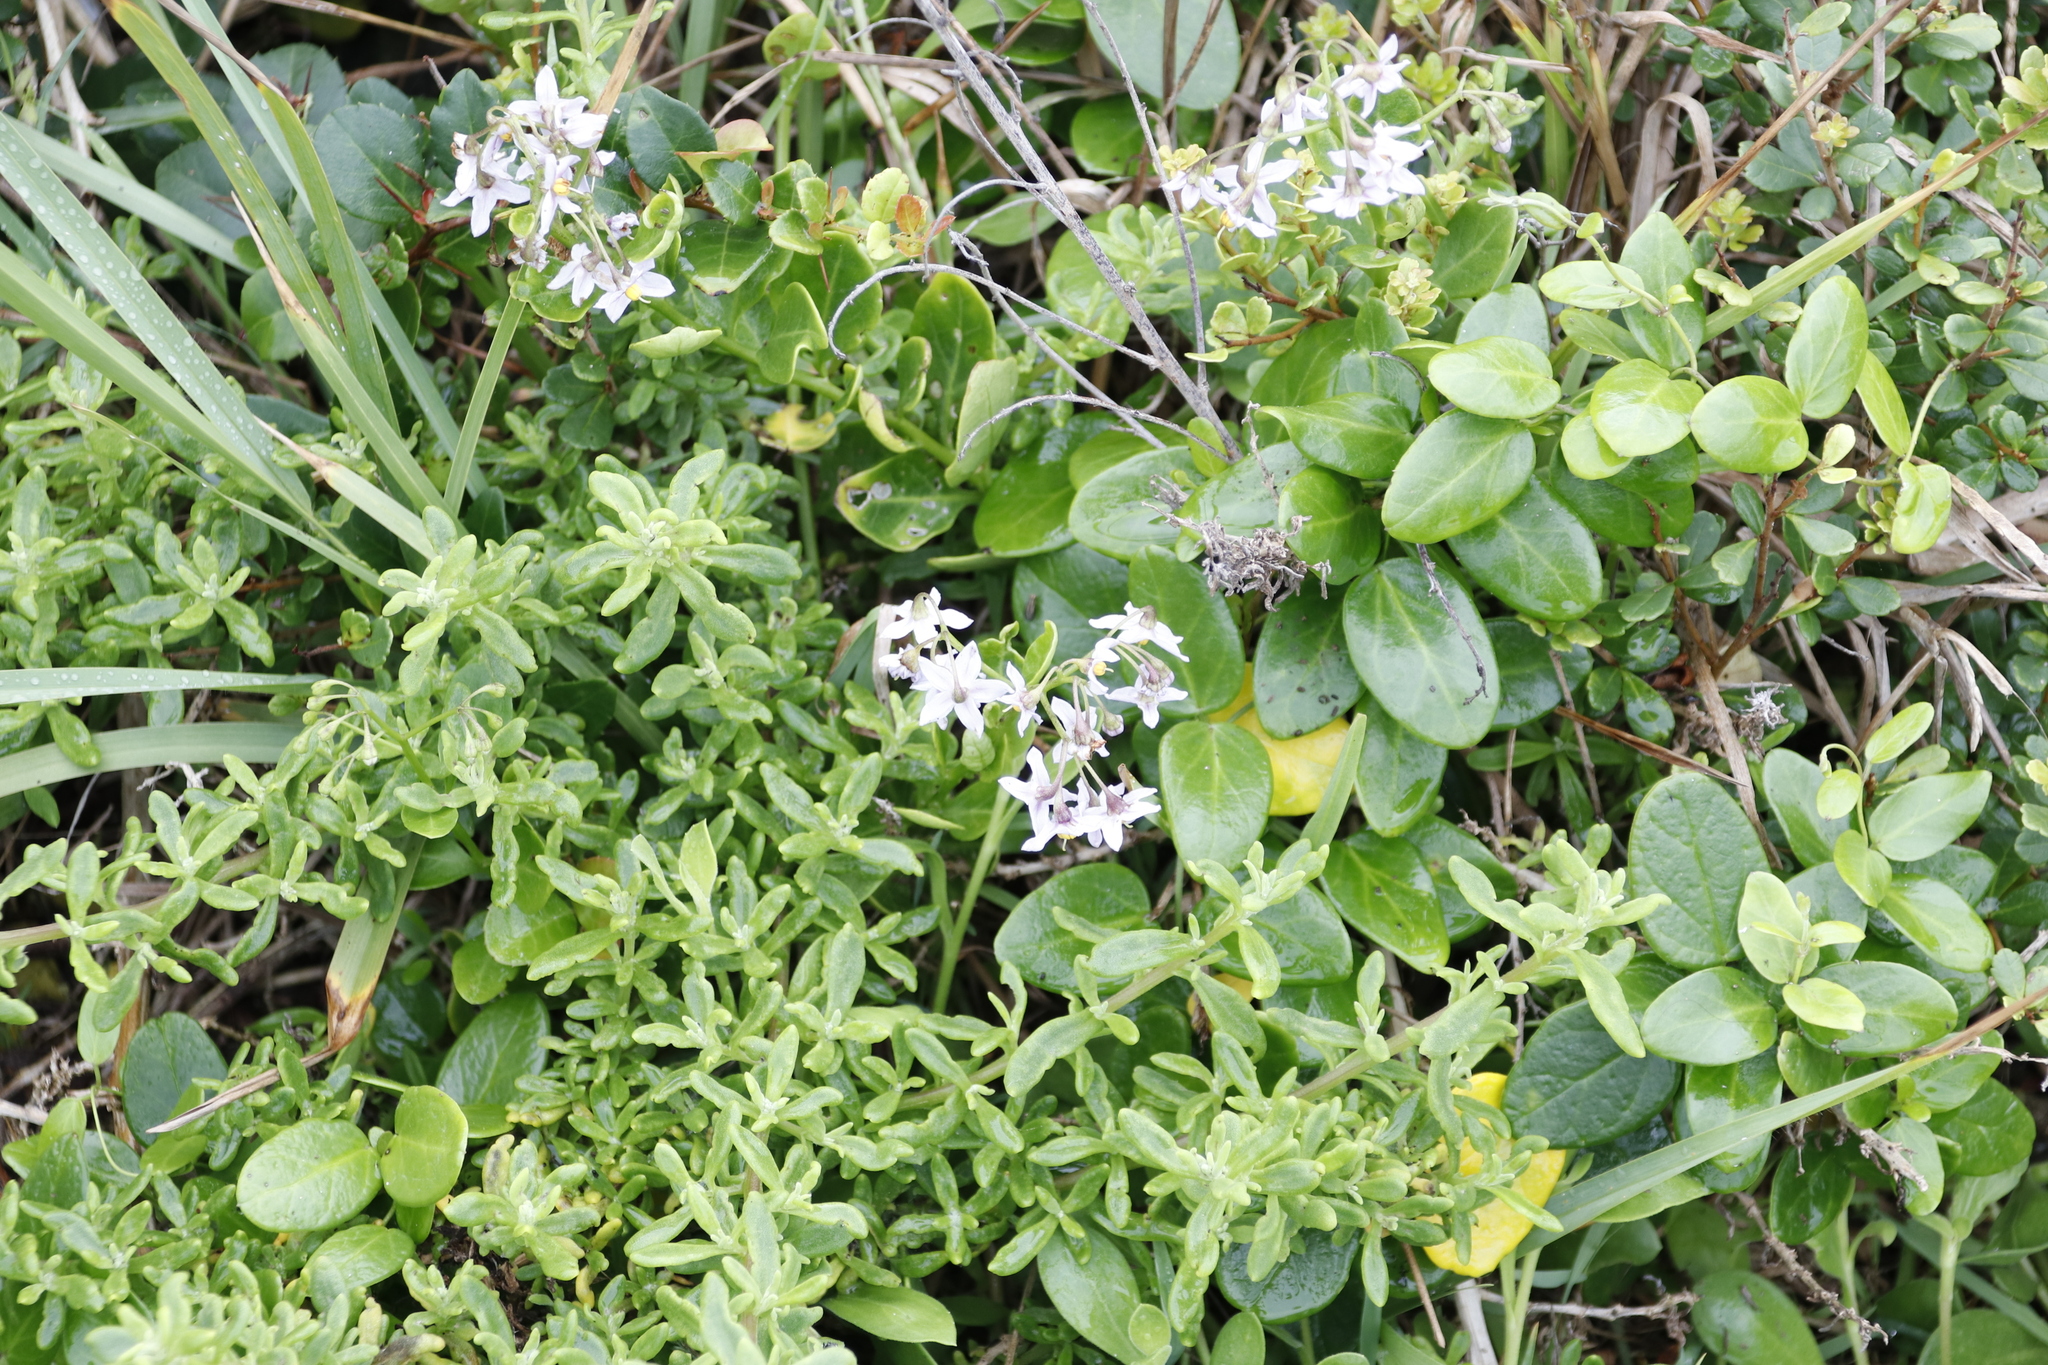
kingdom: Plantae
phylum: Tracheophyta
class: Magnoliopsida
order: Solanales
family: Solanaceae
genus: Solanum
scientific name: Solanum africanum
